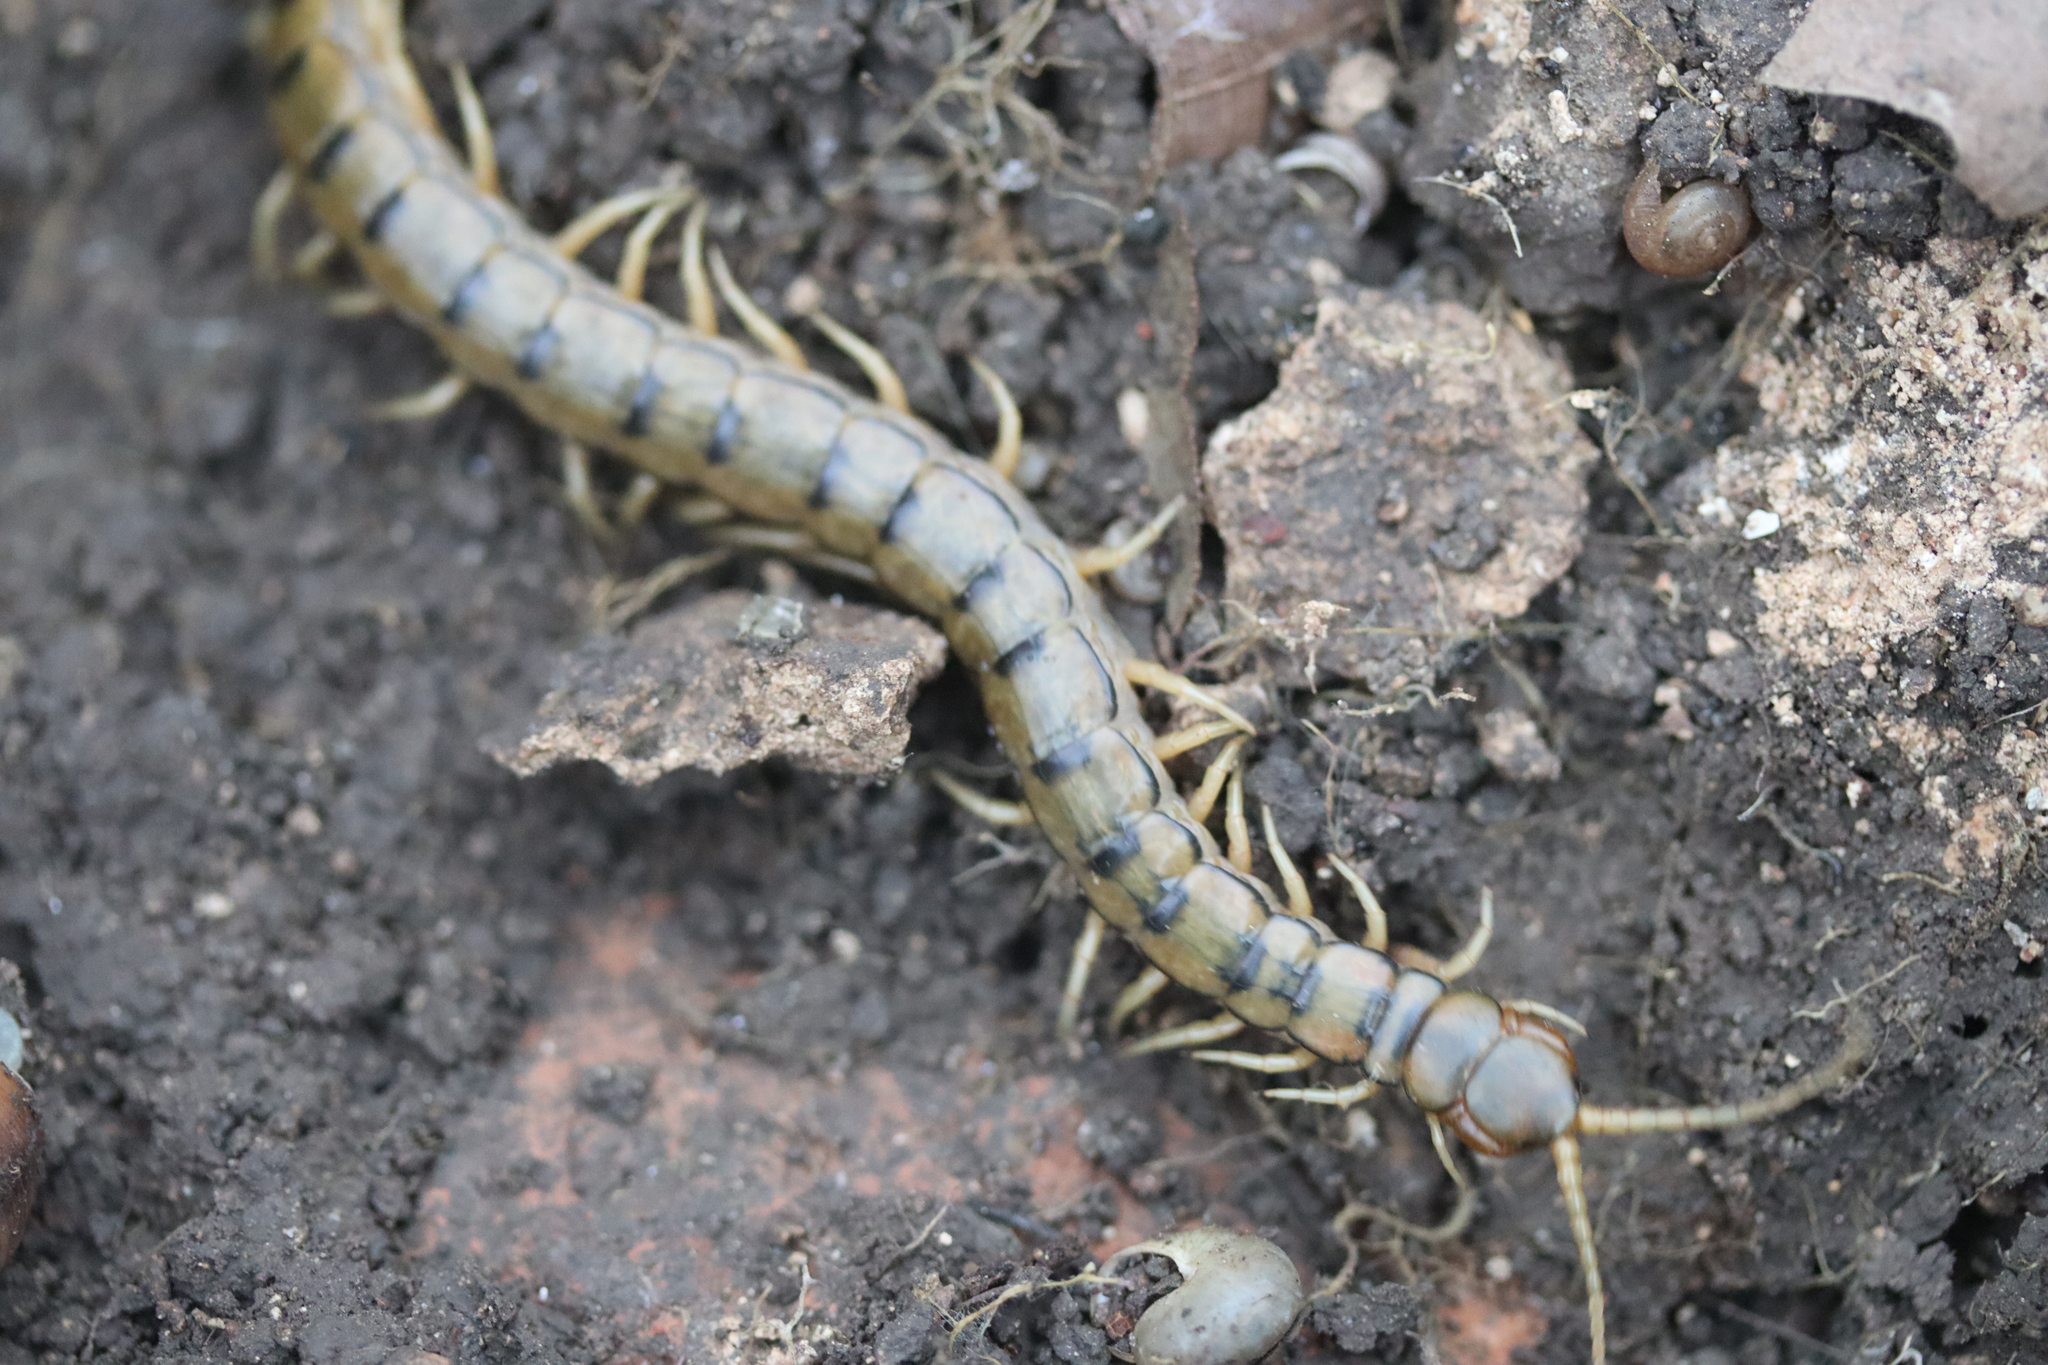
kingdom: Animalia
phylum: Arthropoda
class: Chilopoda
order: Scolopendromorpha
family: Scolopendridae
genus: Scolopendra
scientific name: Scolopendra cingulata
